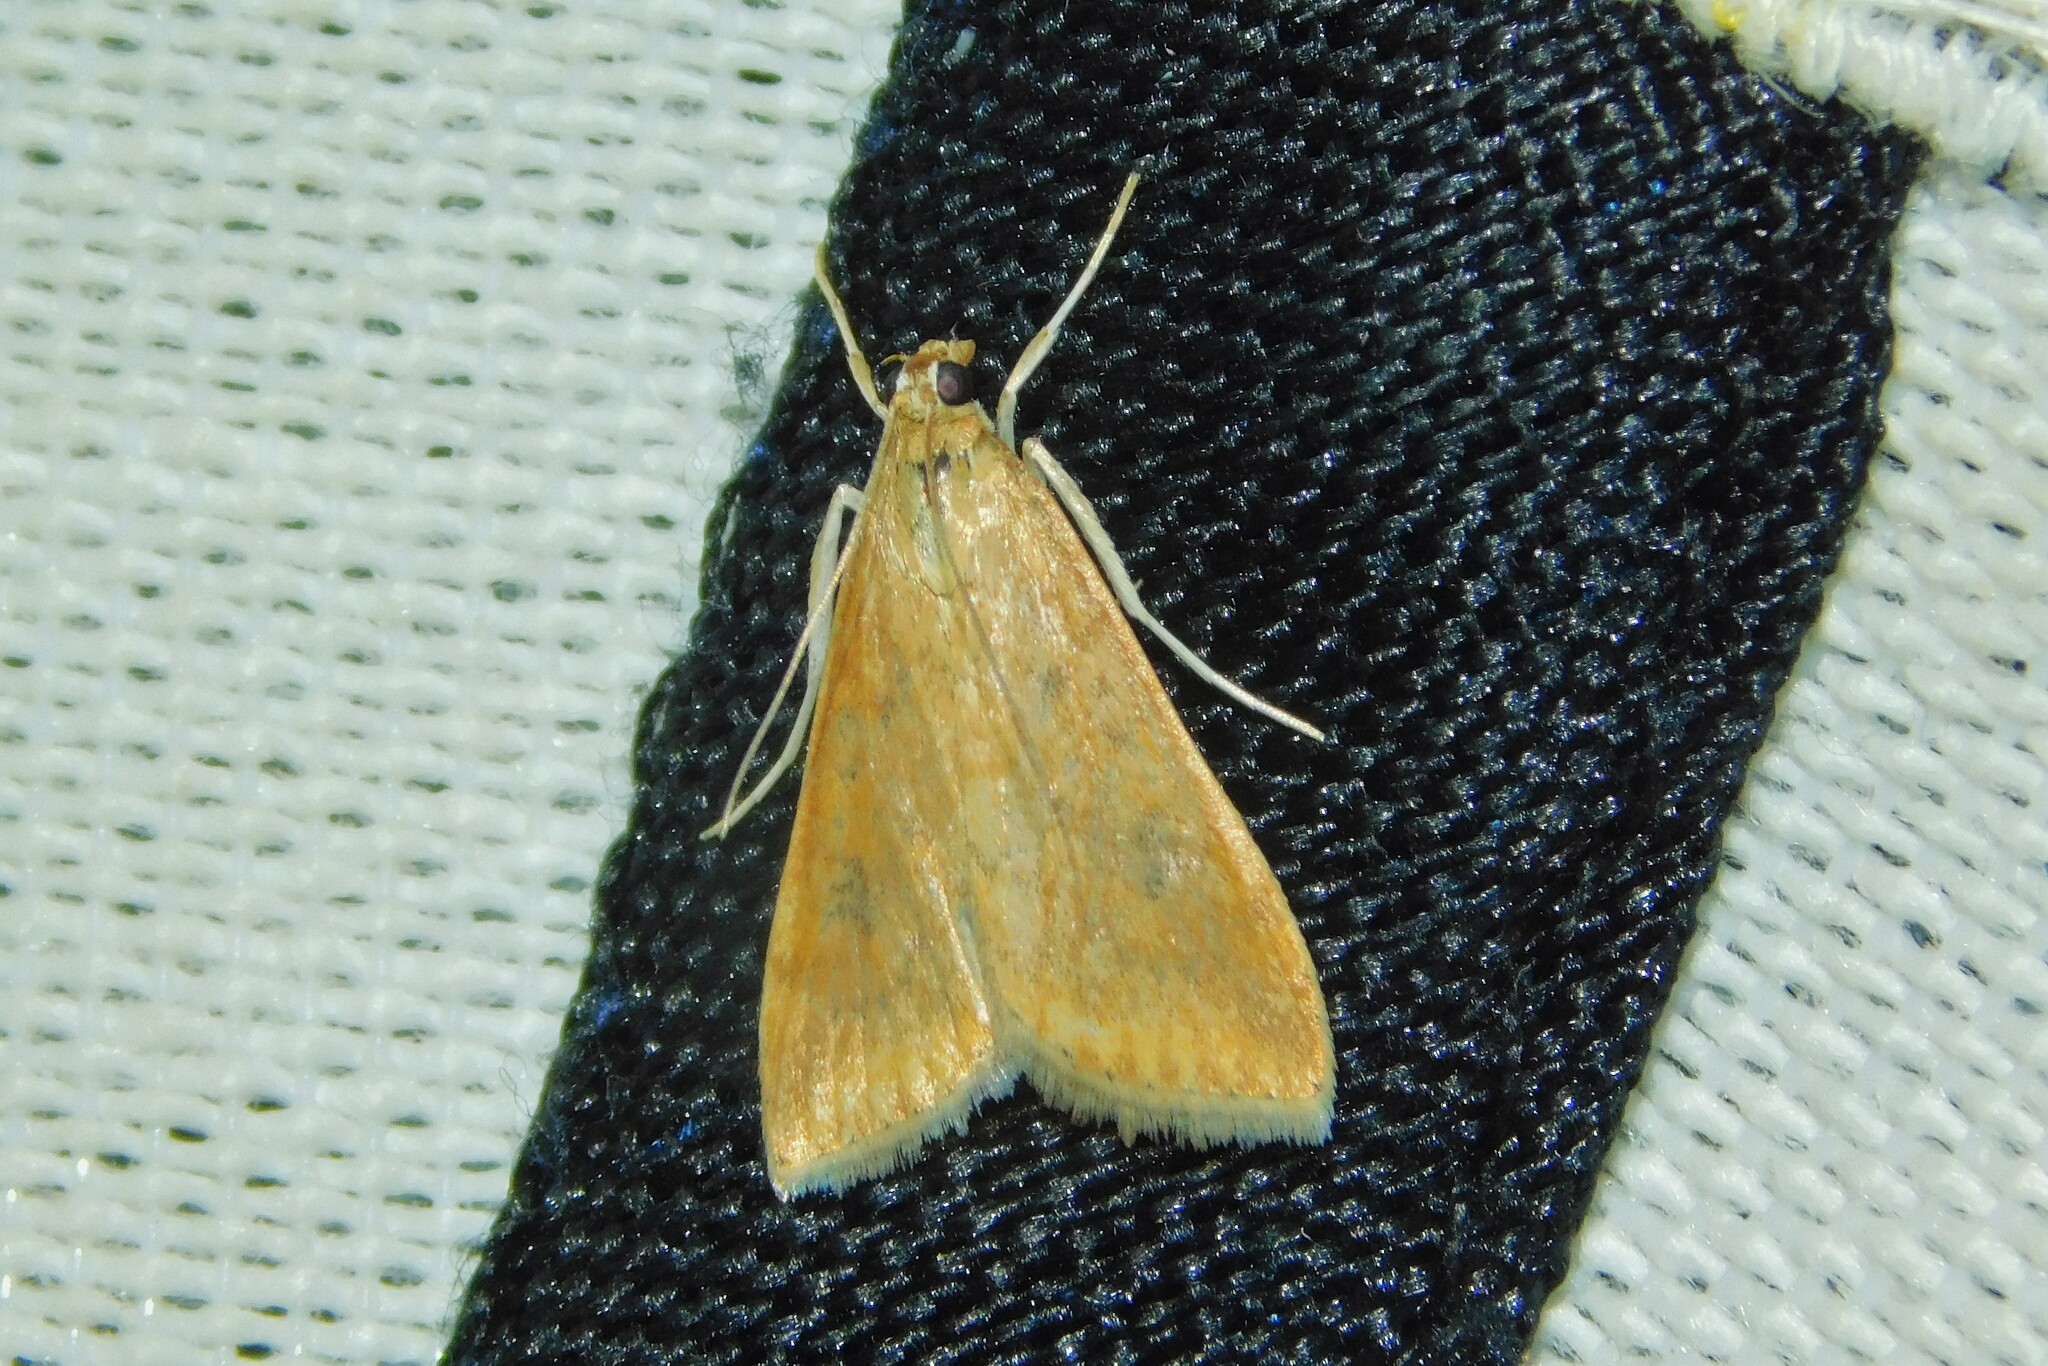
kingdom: Animalia
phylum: Arthropoda
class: Insecta
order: Lepidoptera
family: Crambidae
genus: Udea
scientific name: Udea ferrugalis
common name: Rusty dot
